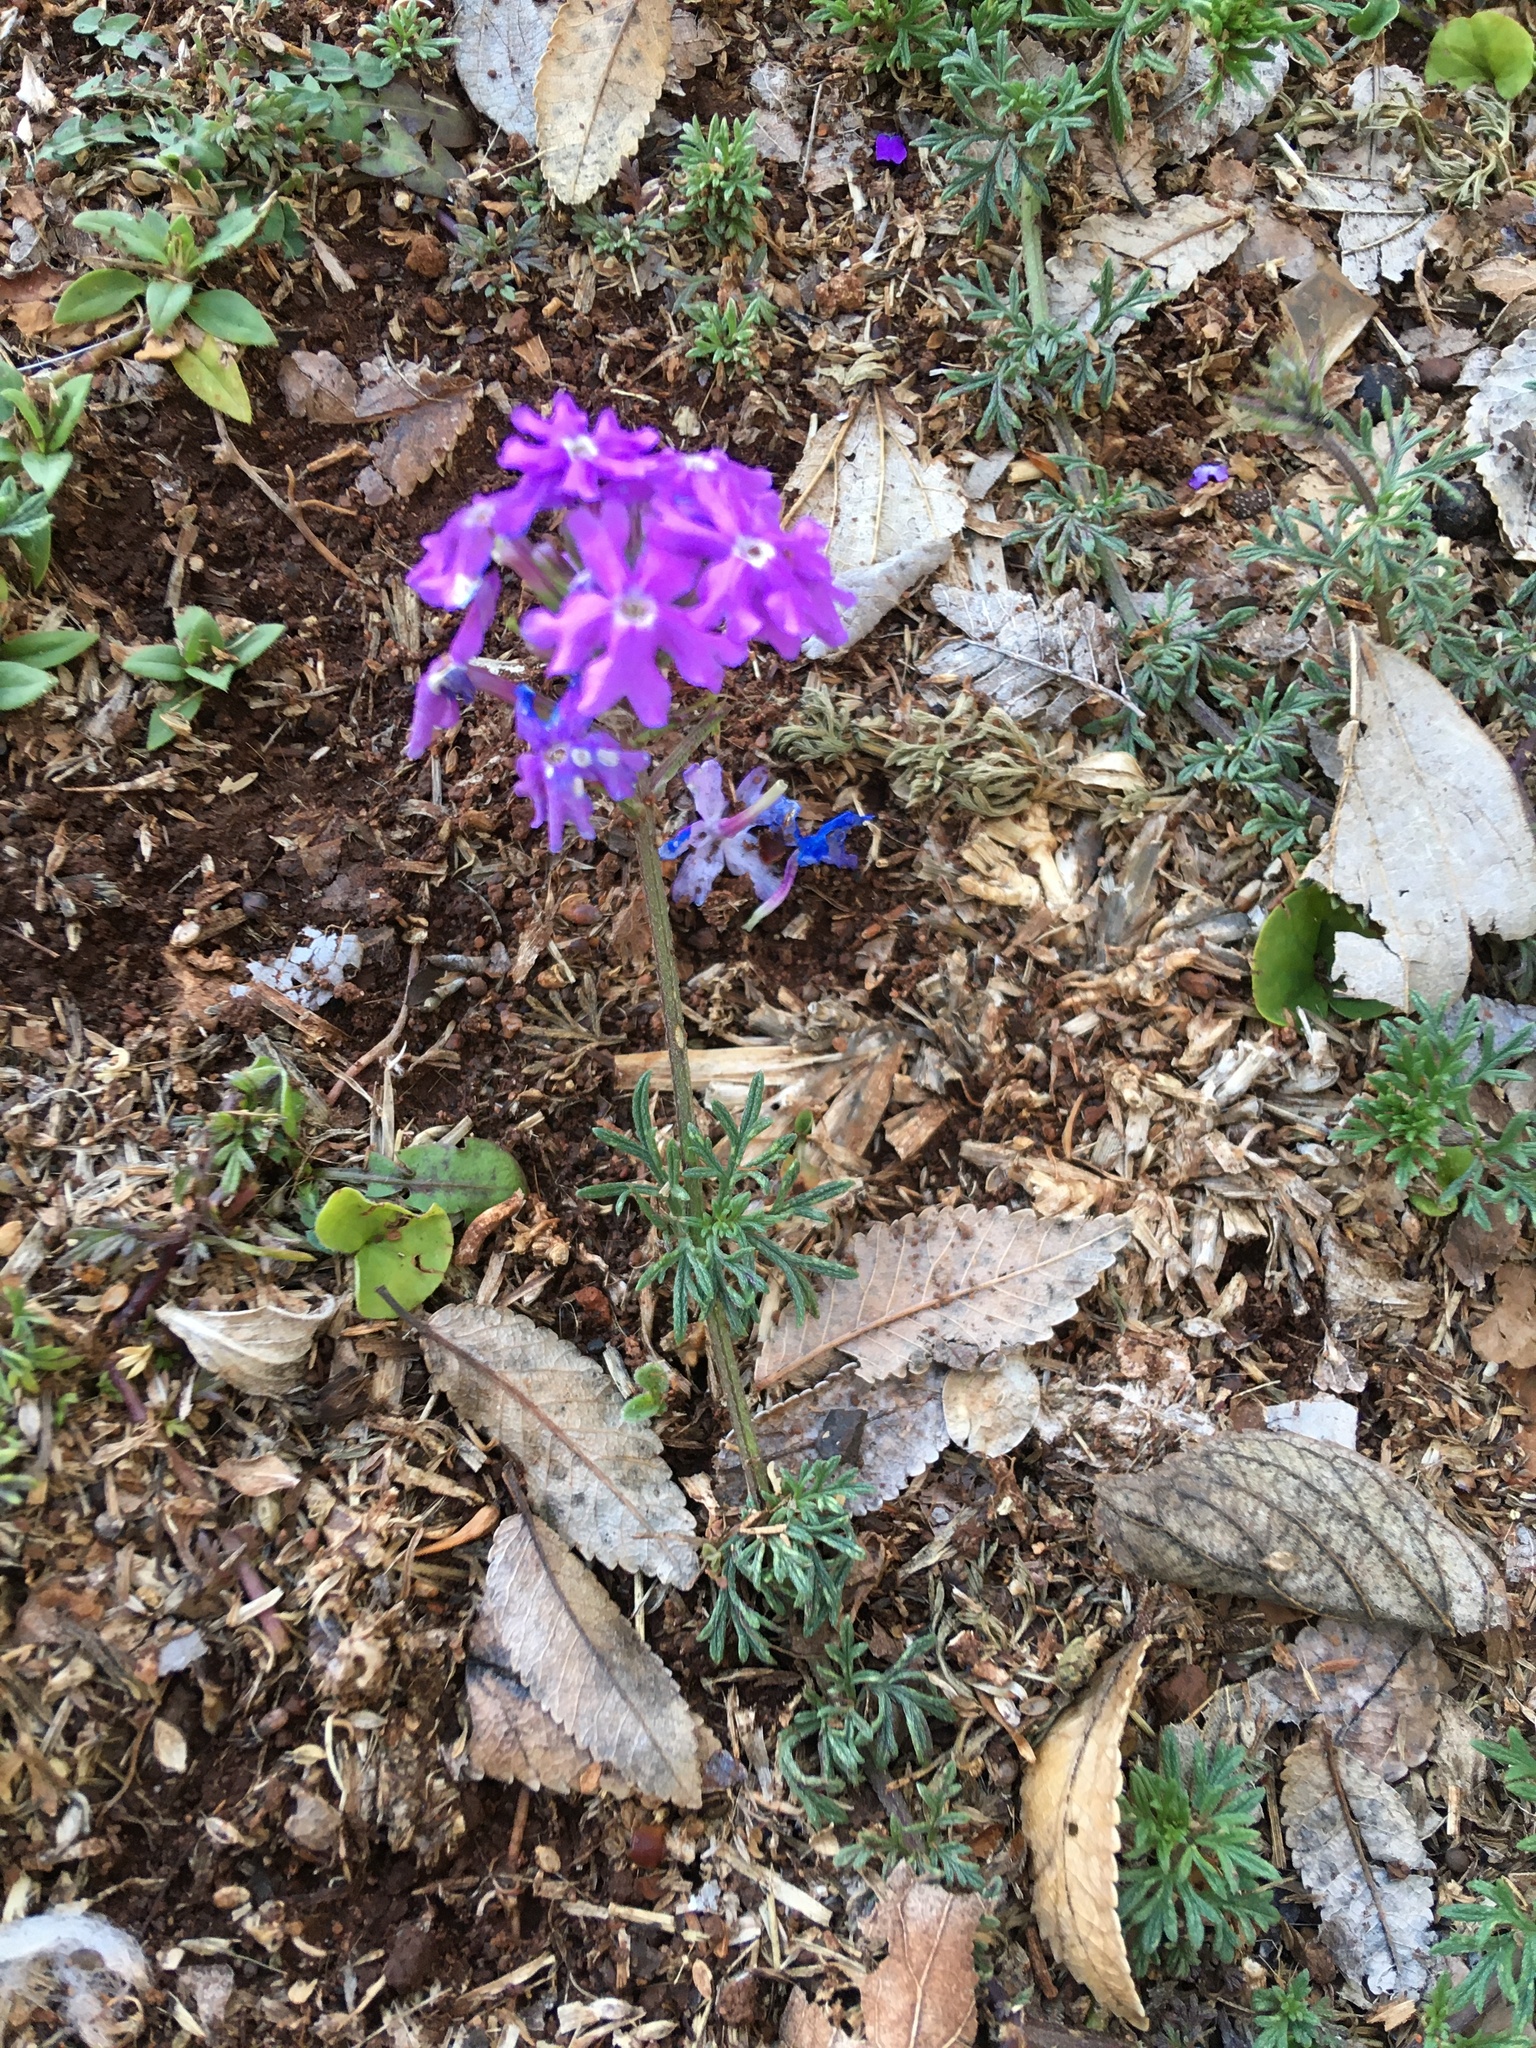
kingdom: Plantae
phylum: Tracheophyta
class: Magnoliopsida
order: Lamiales
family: Verbenaceae
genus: Verbena
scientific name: Verbena aristigera
